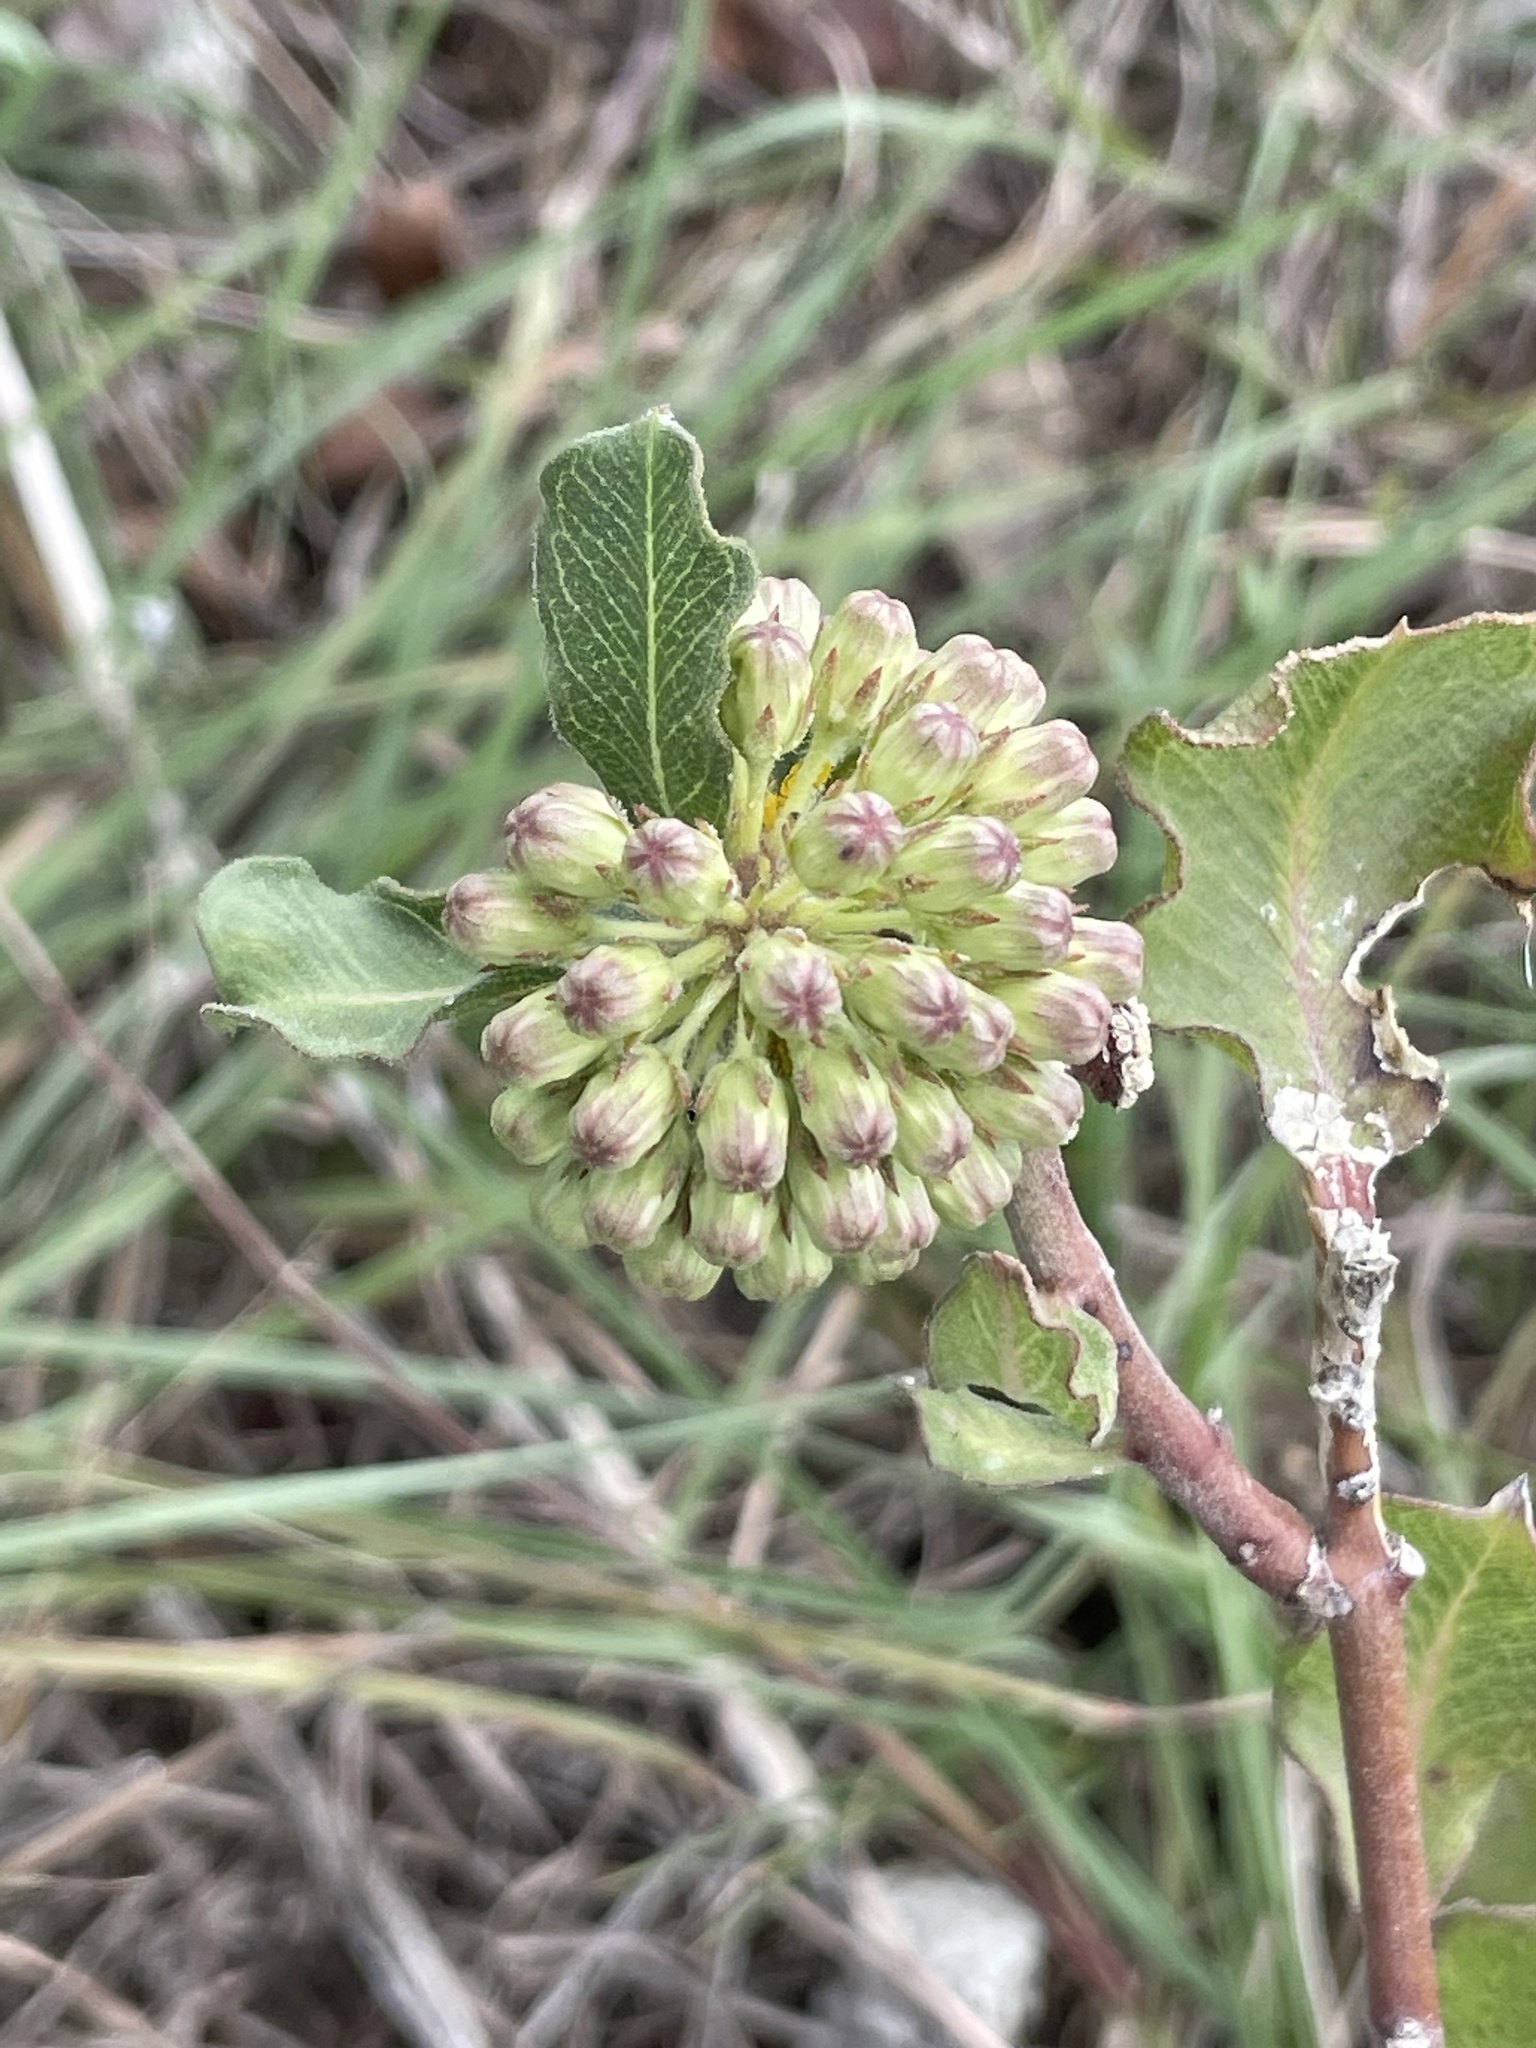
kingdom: Plantae
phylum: Tracheophyta
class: Magnoliopsida
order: Gentianales
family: Apocynaceae
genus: Asclepias
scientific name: Asclepias viridiflora
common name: Green comet milkweed
